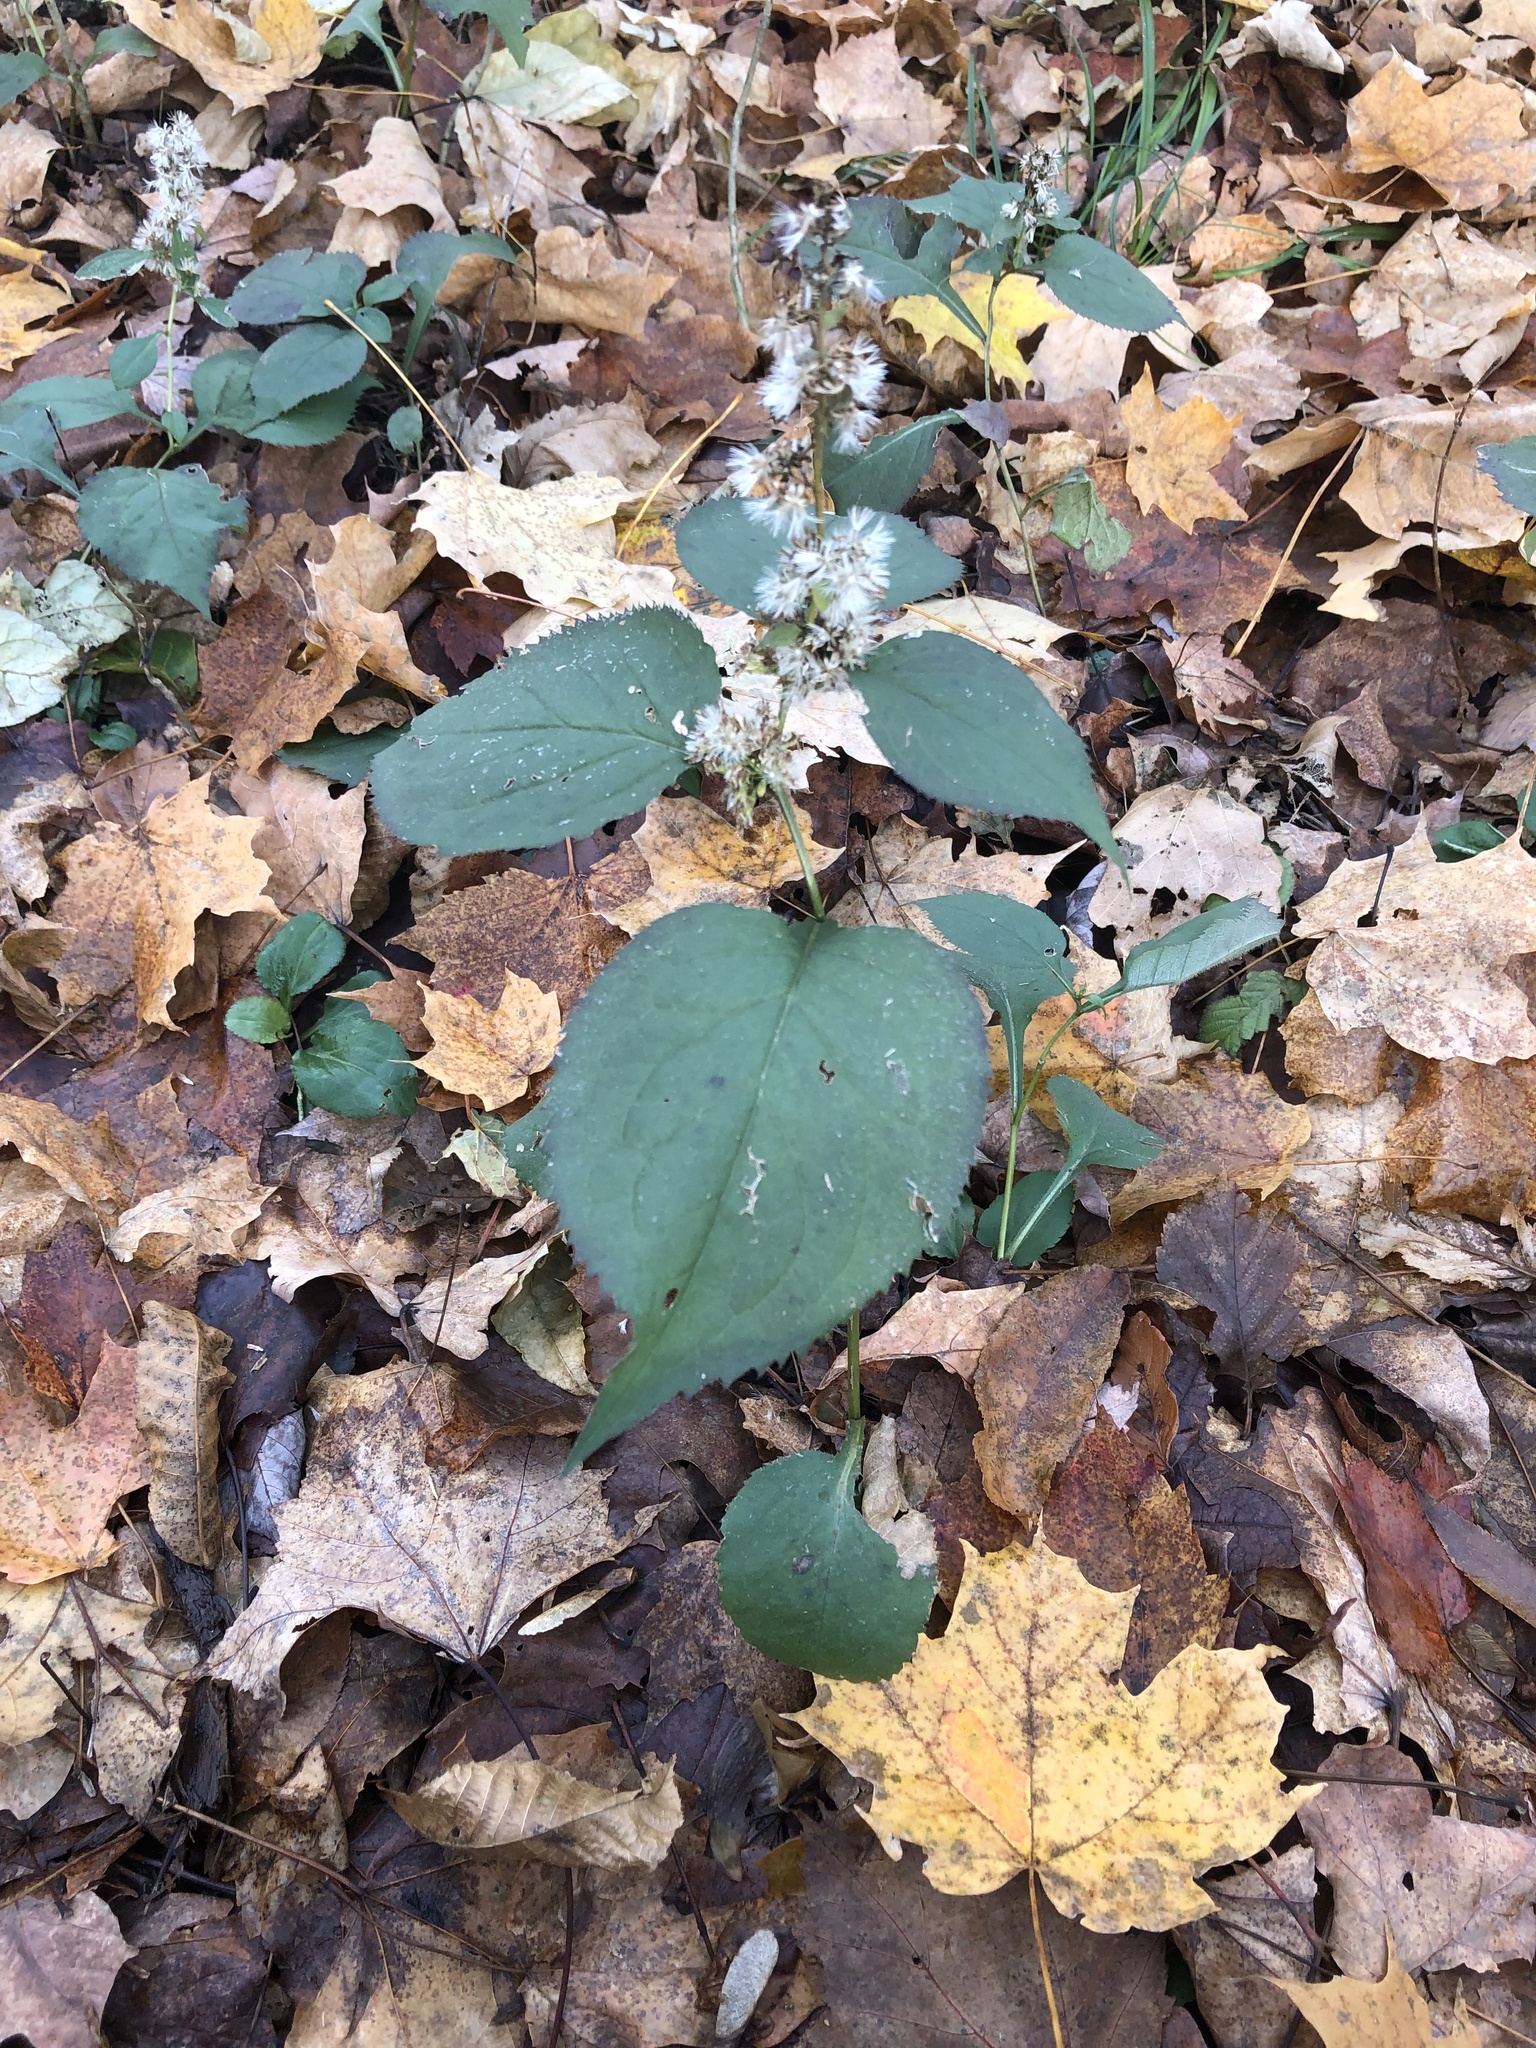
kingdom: Plantae
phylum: Tracheophyta
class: Magnoliopsida
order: Asterales
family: Asteraceae
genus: Solidago
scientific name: Solidago flexicaulis
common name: Zig-zag goldenrod
